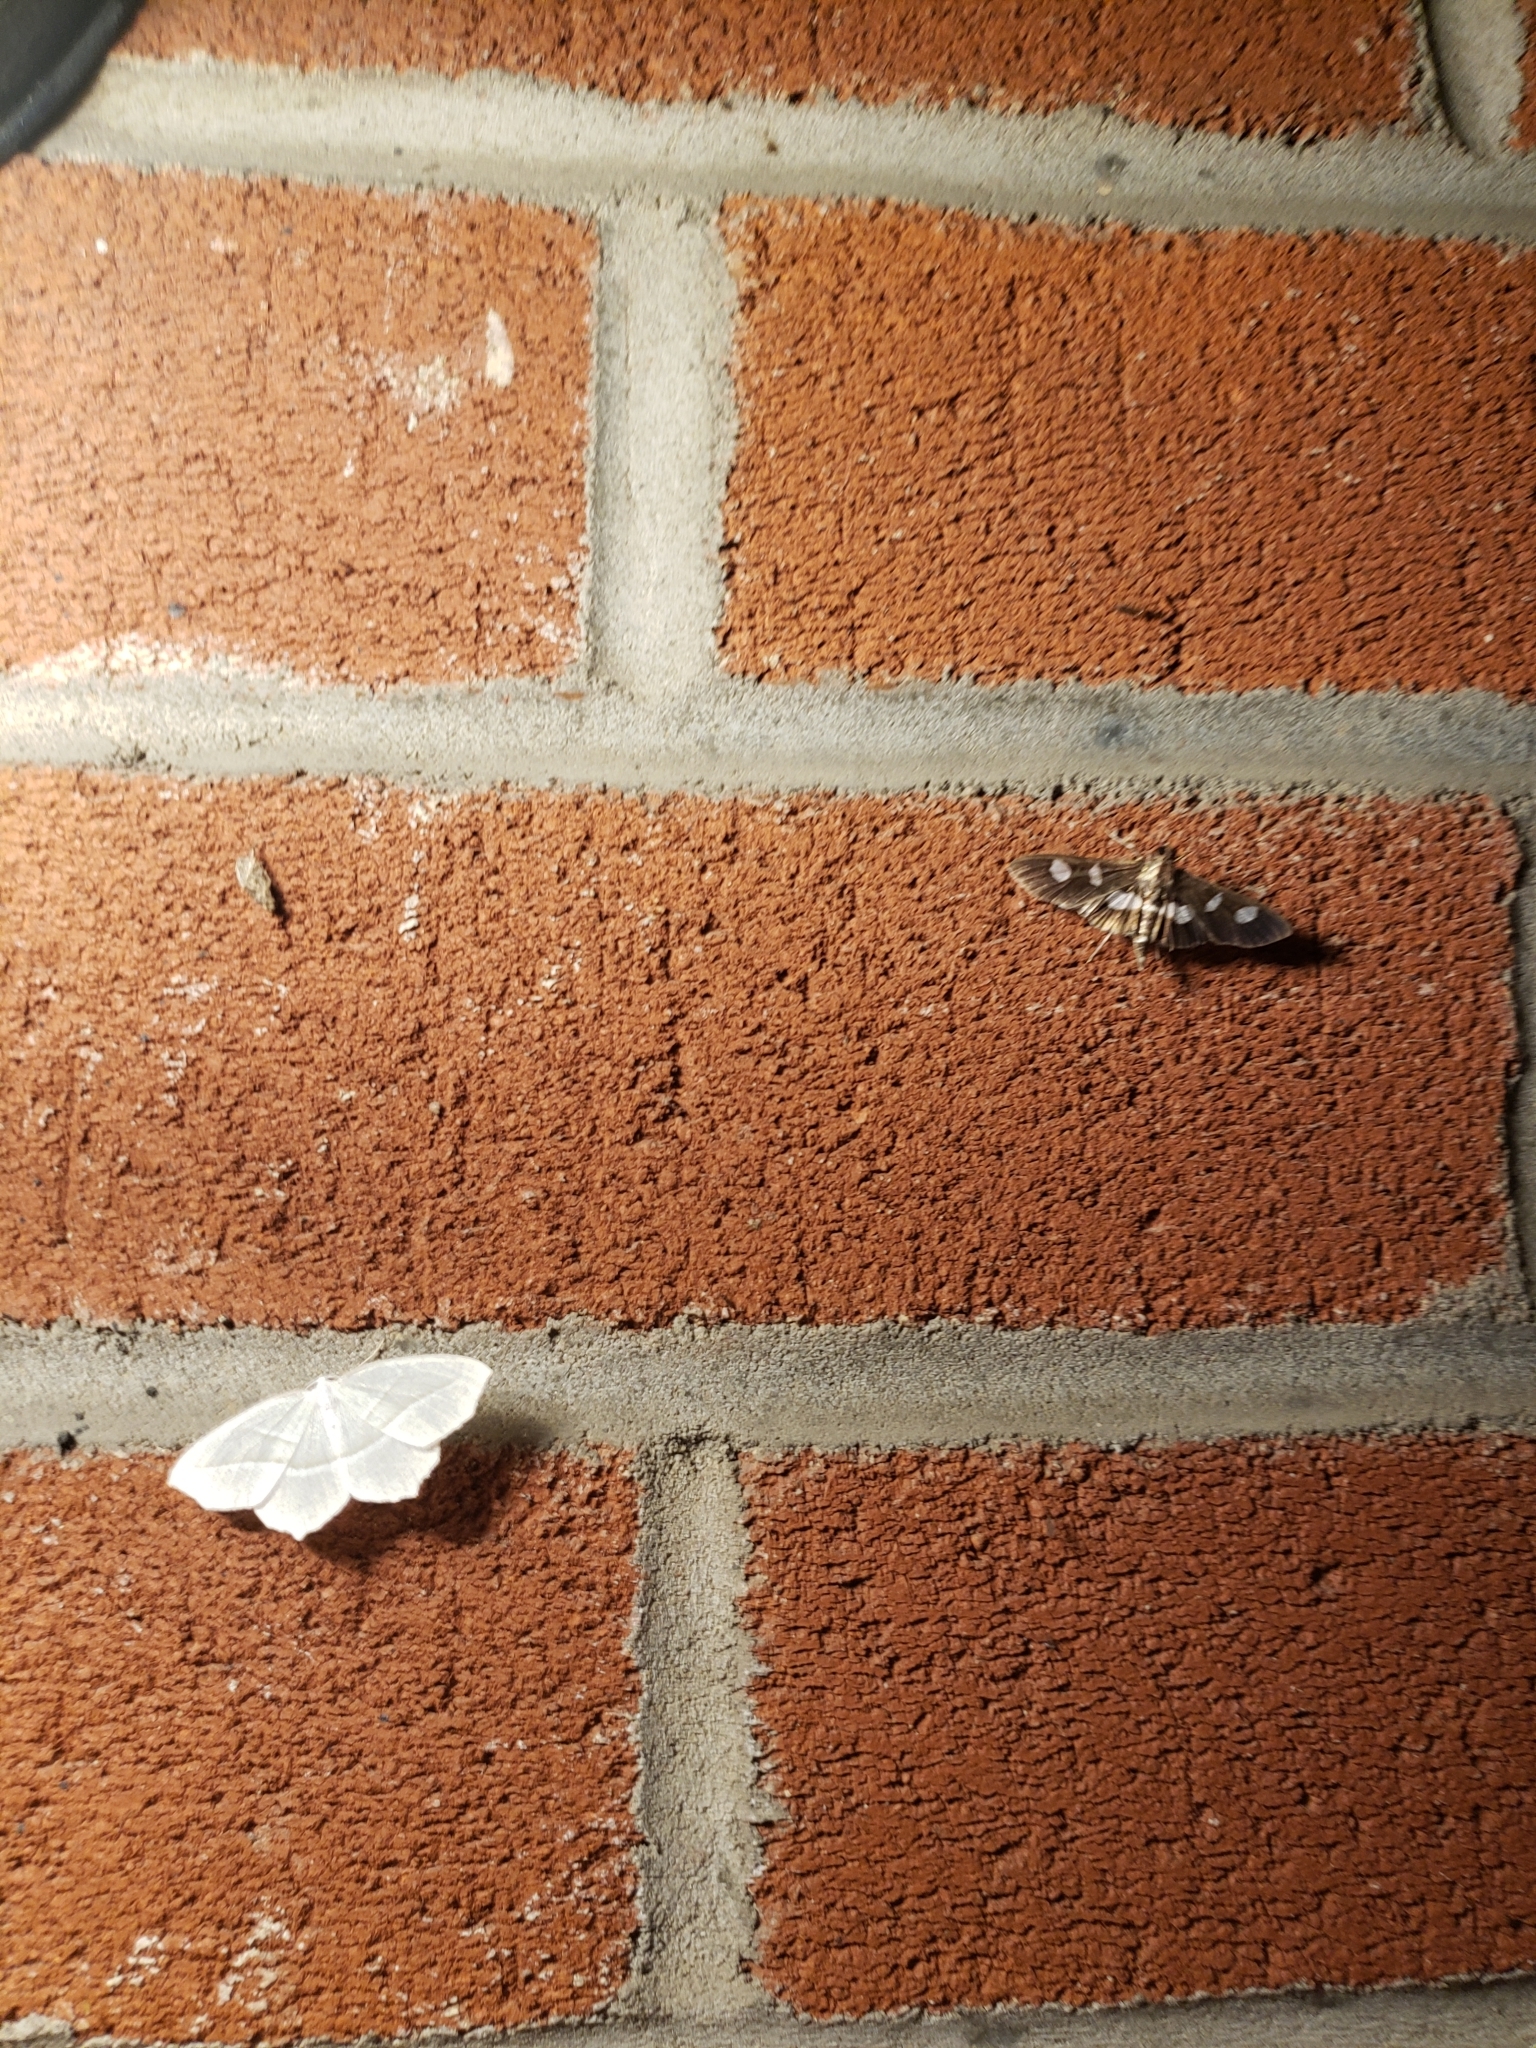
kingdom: Animalia
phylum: Arthropoda
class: Insecta
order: Lepidoptera
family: Crambidae
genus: Desmia
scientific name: Desmia
